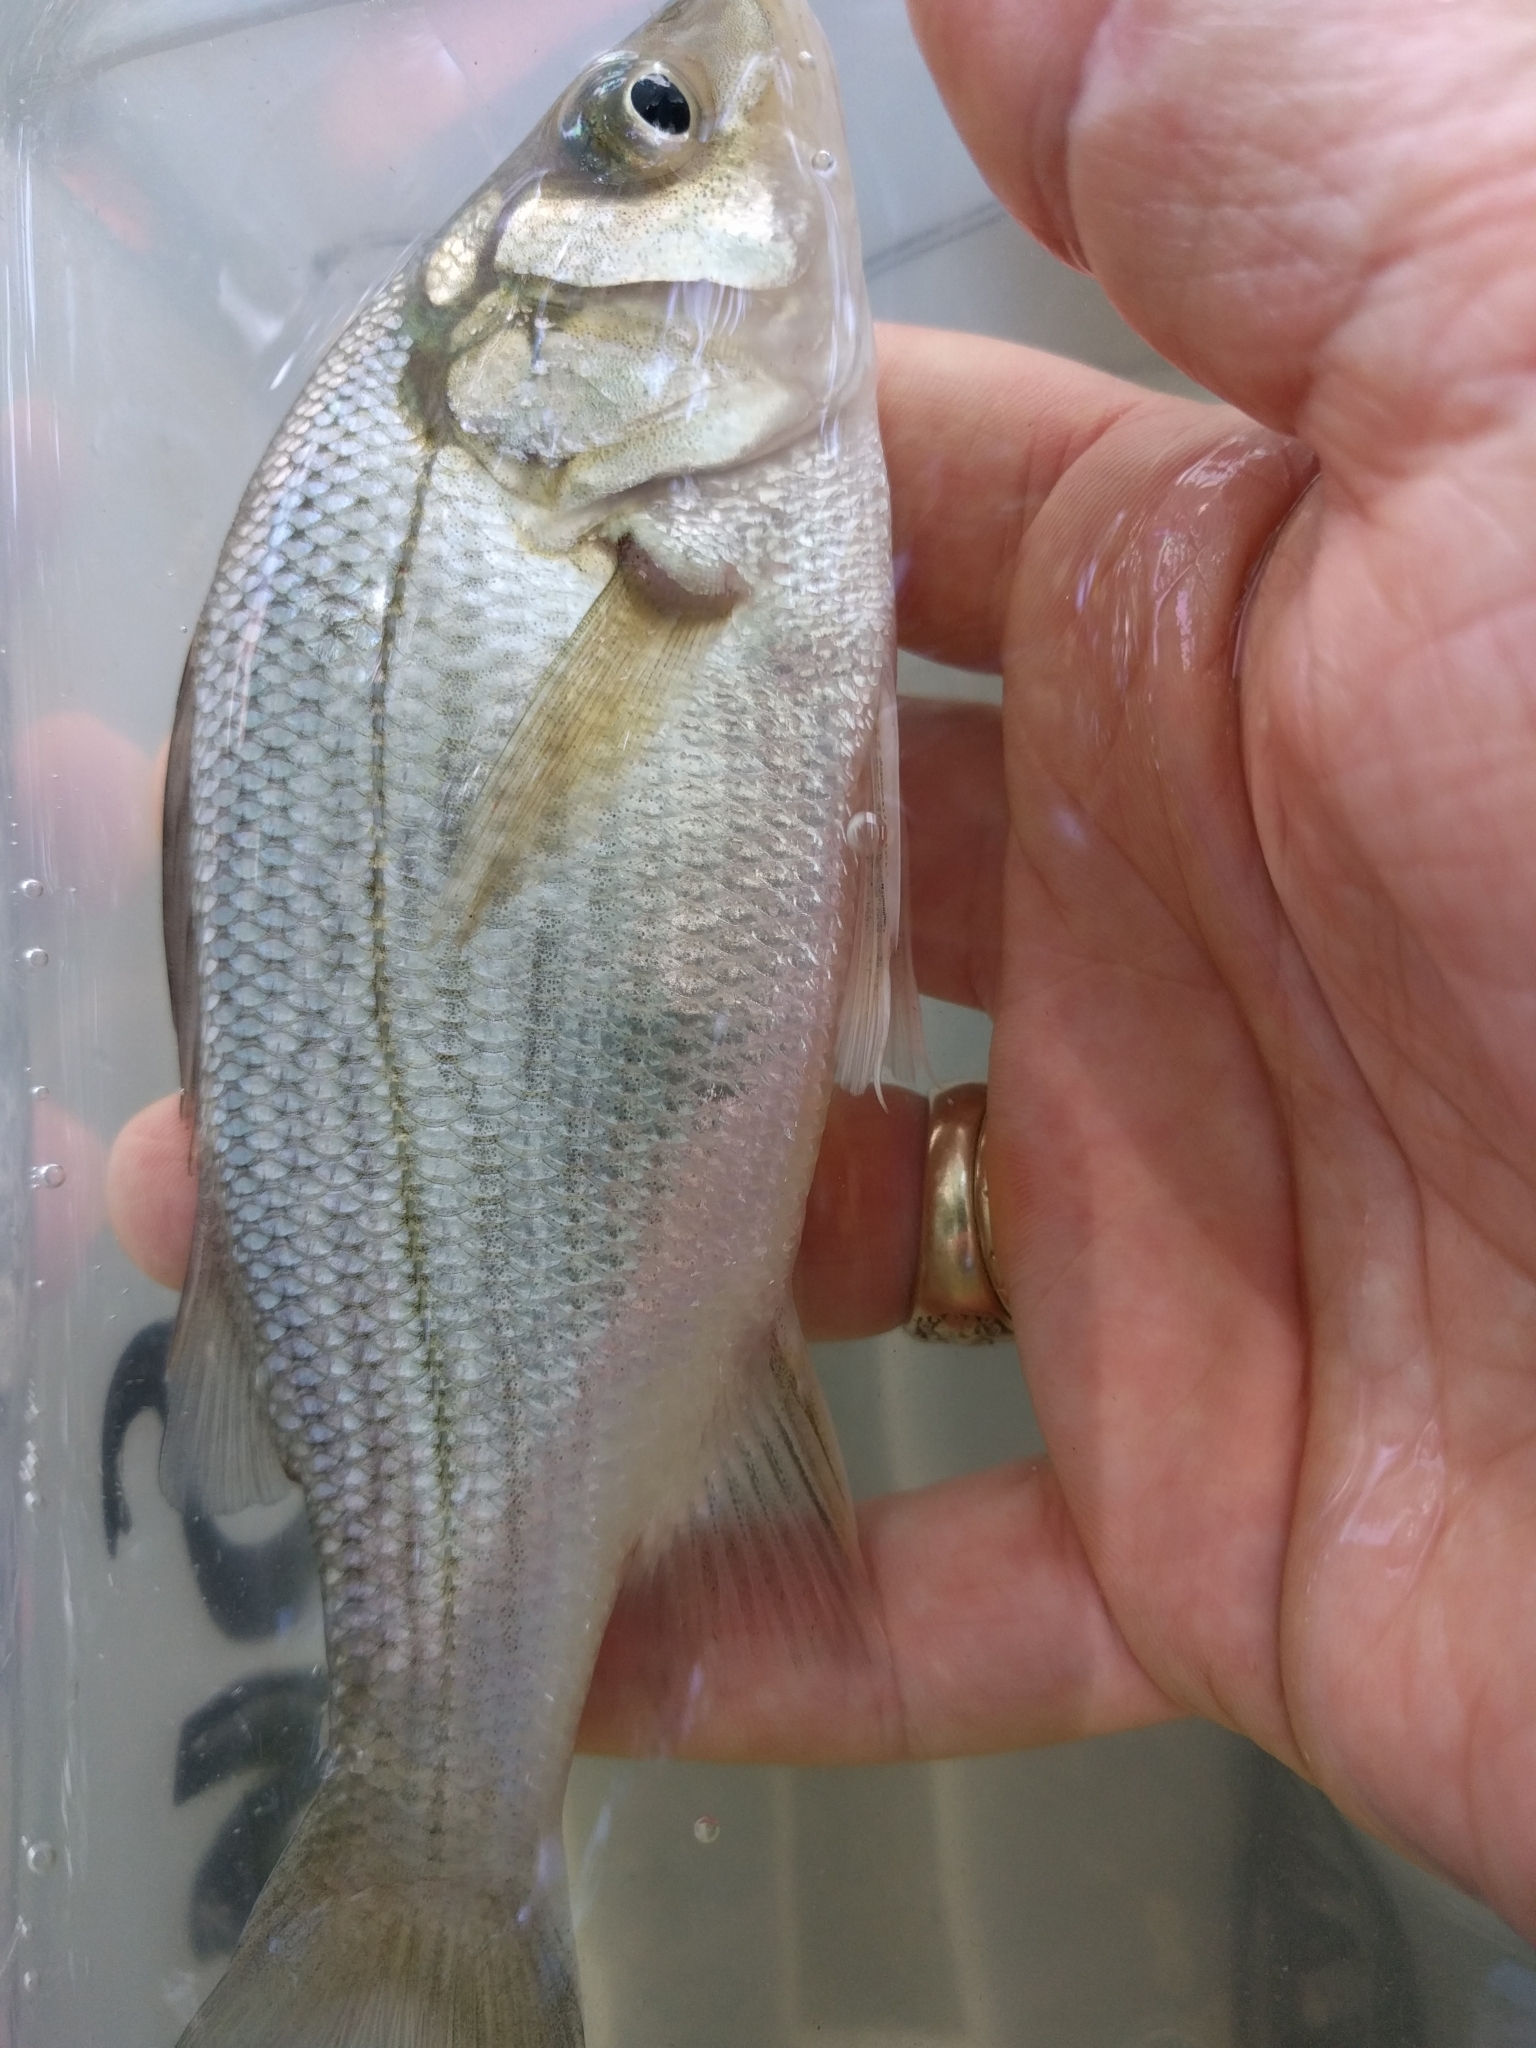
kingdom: Animalia
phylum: Chordata
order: Perciformes
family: Moronidae
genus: Morone
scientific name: Morone americana
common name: White perch
